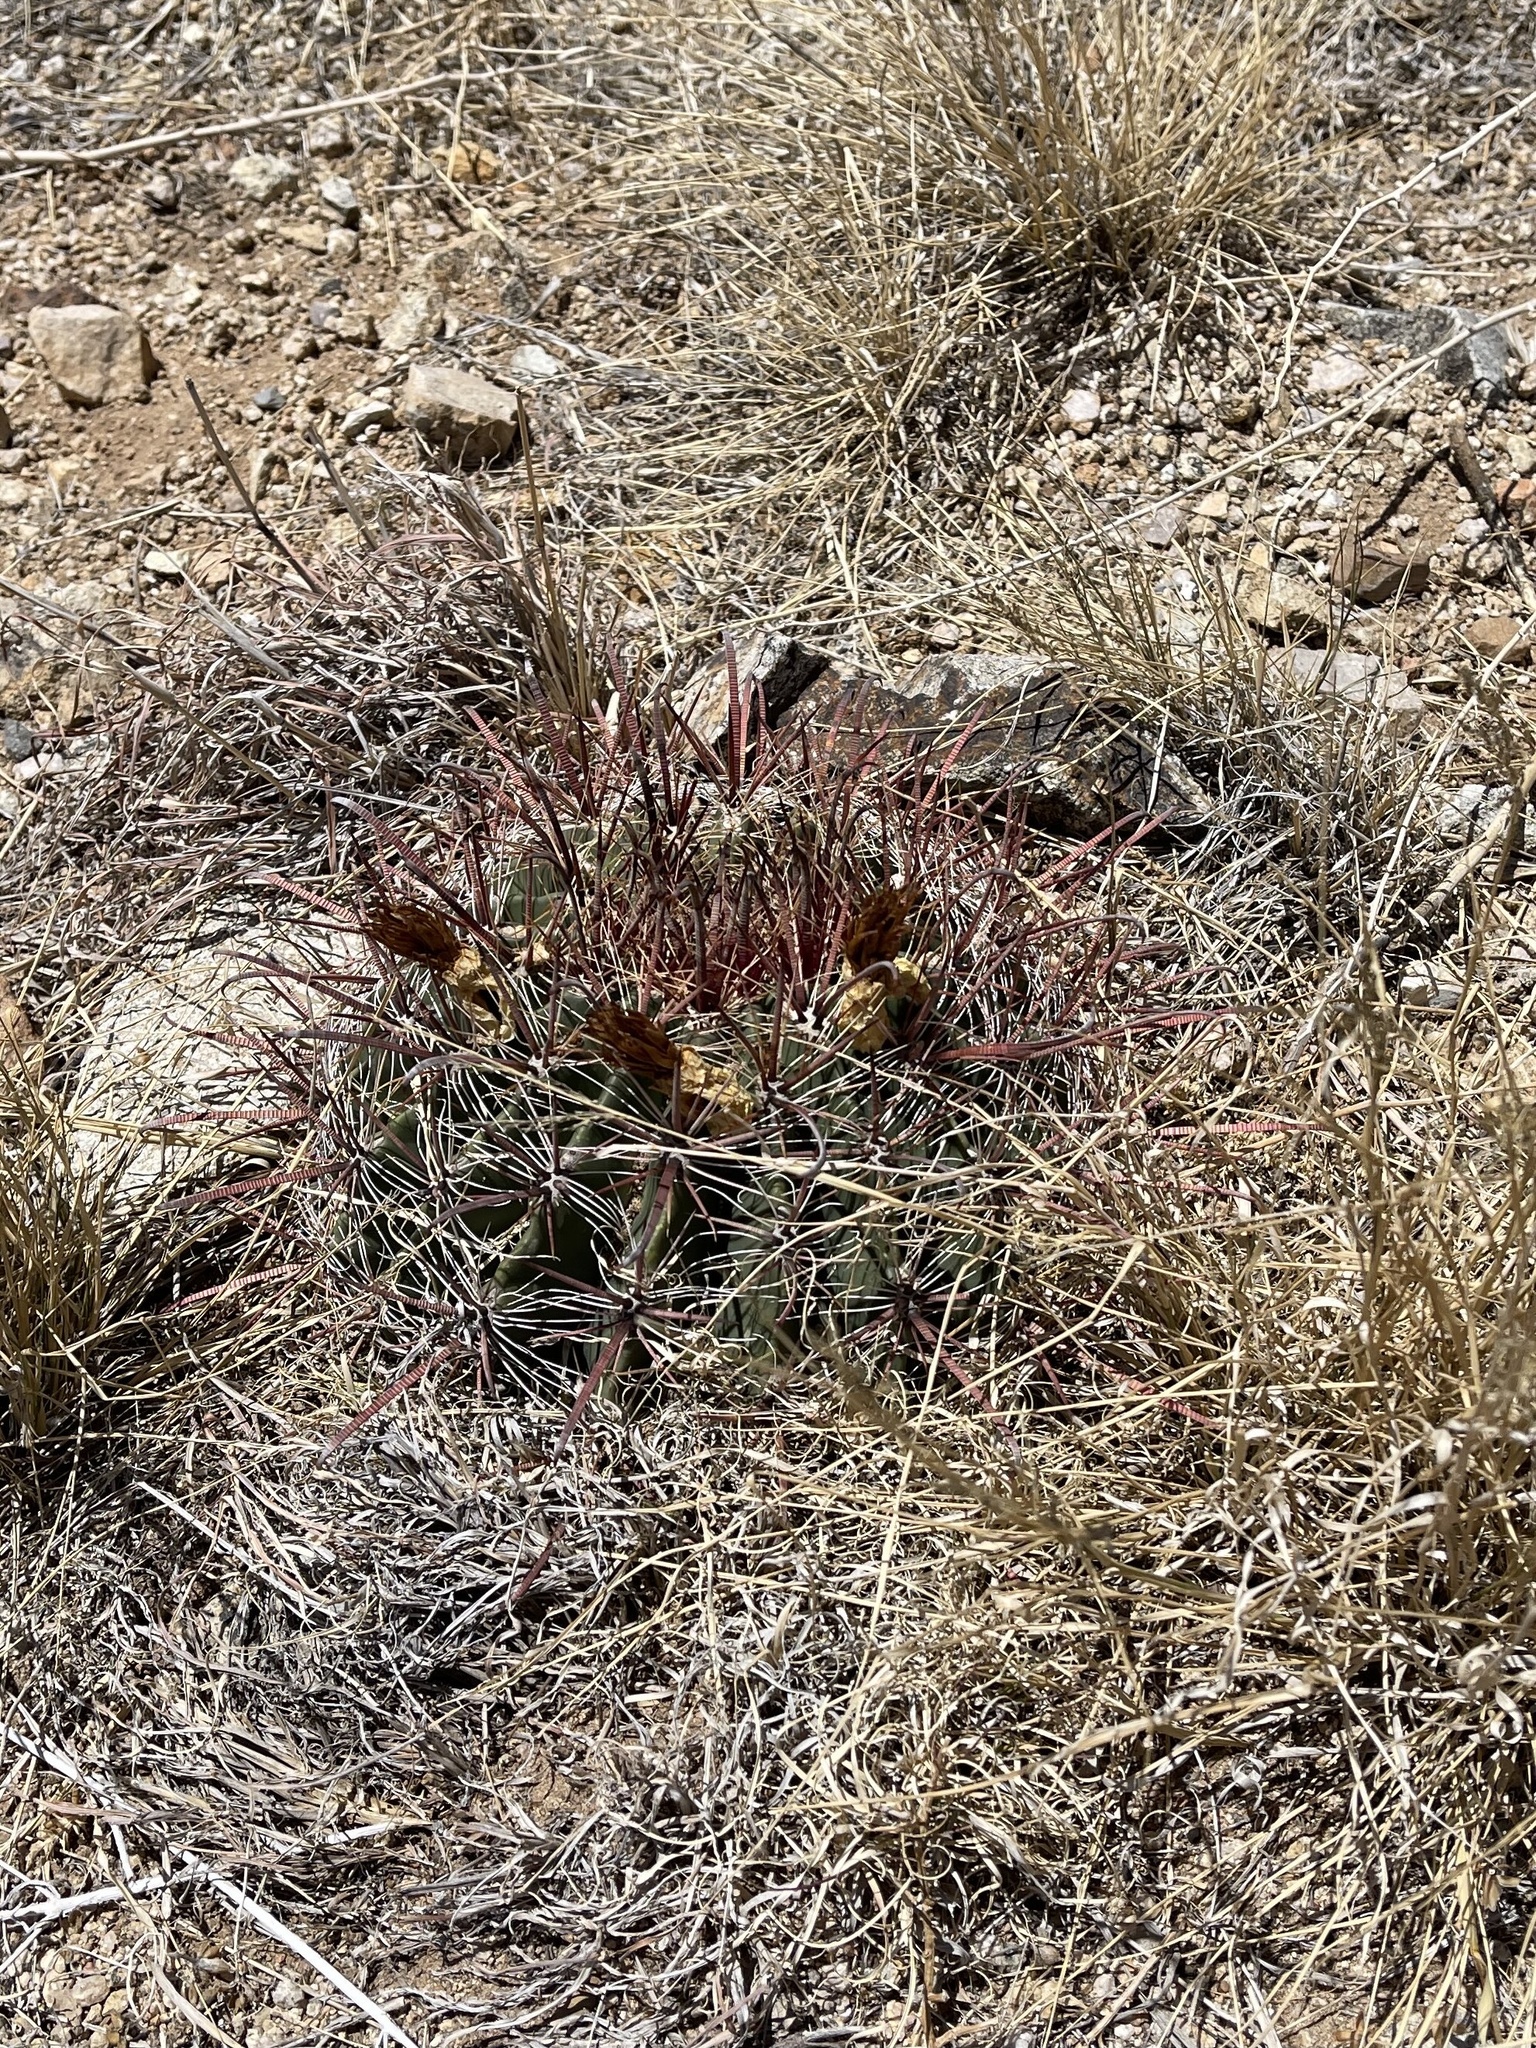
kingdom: Plantae
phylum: Tracheophyta
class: Magnoliopsida
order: Caryophyllales
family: Cactaceae
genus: Ferocactus
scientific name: Ferocactus wislizeni
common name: Candy barrel cactus
